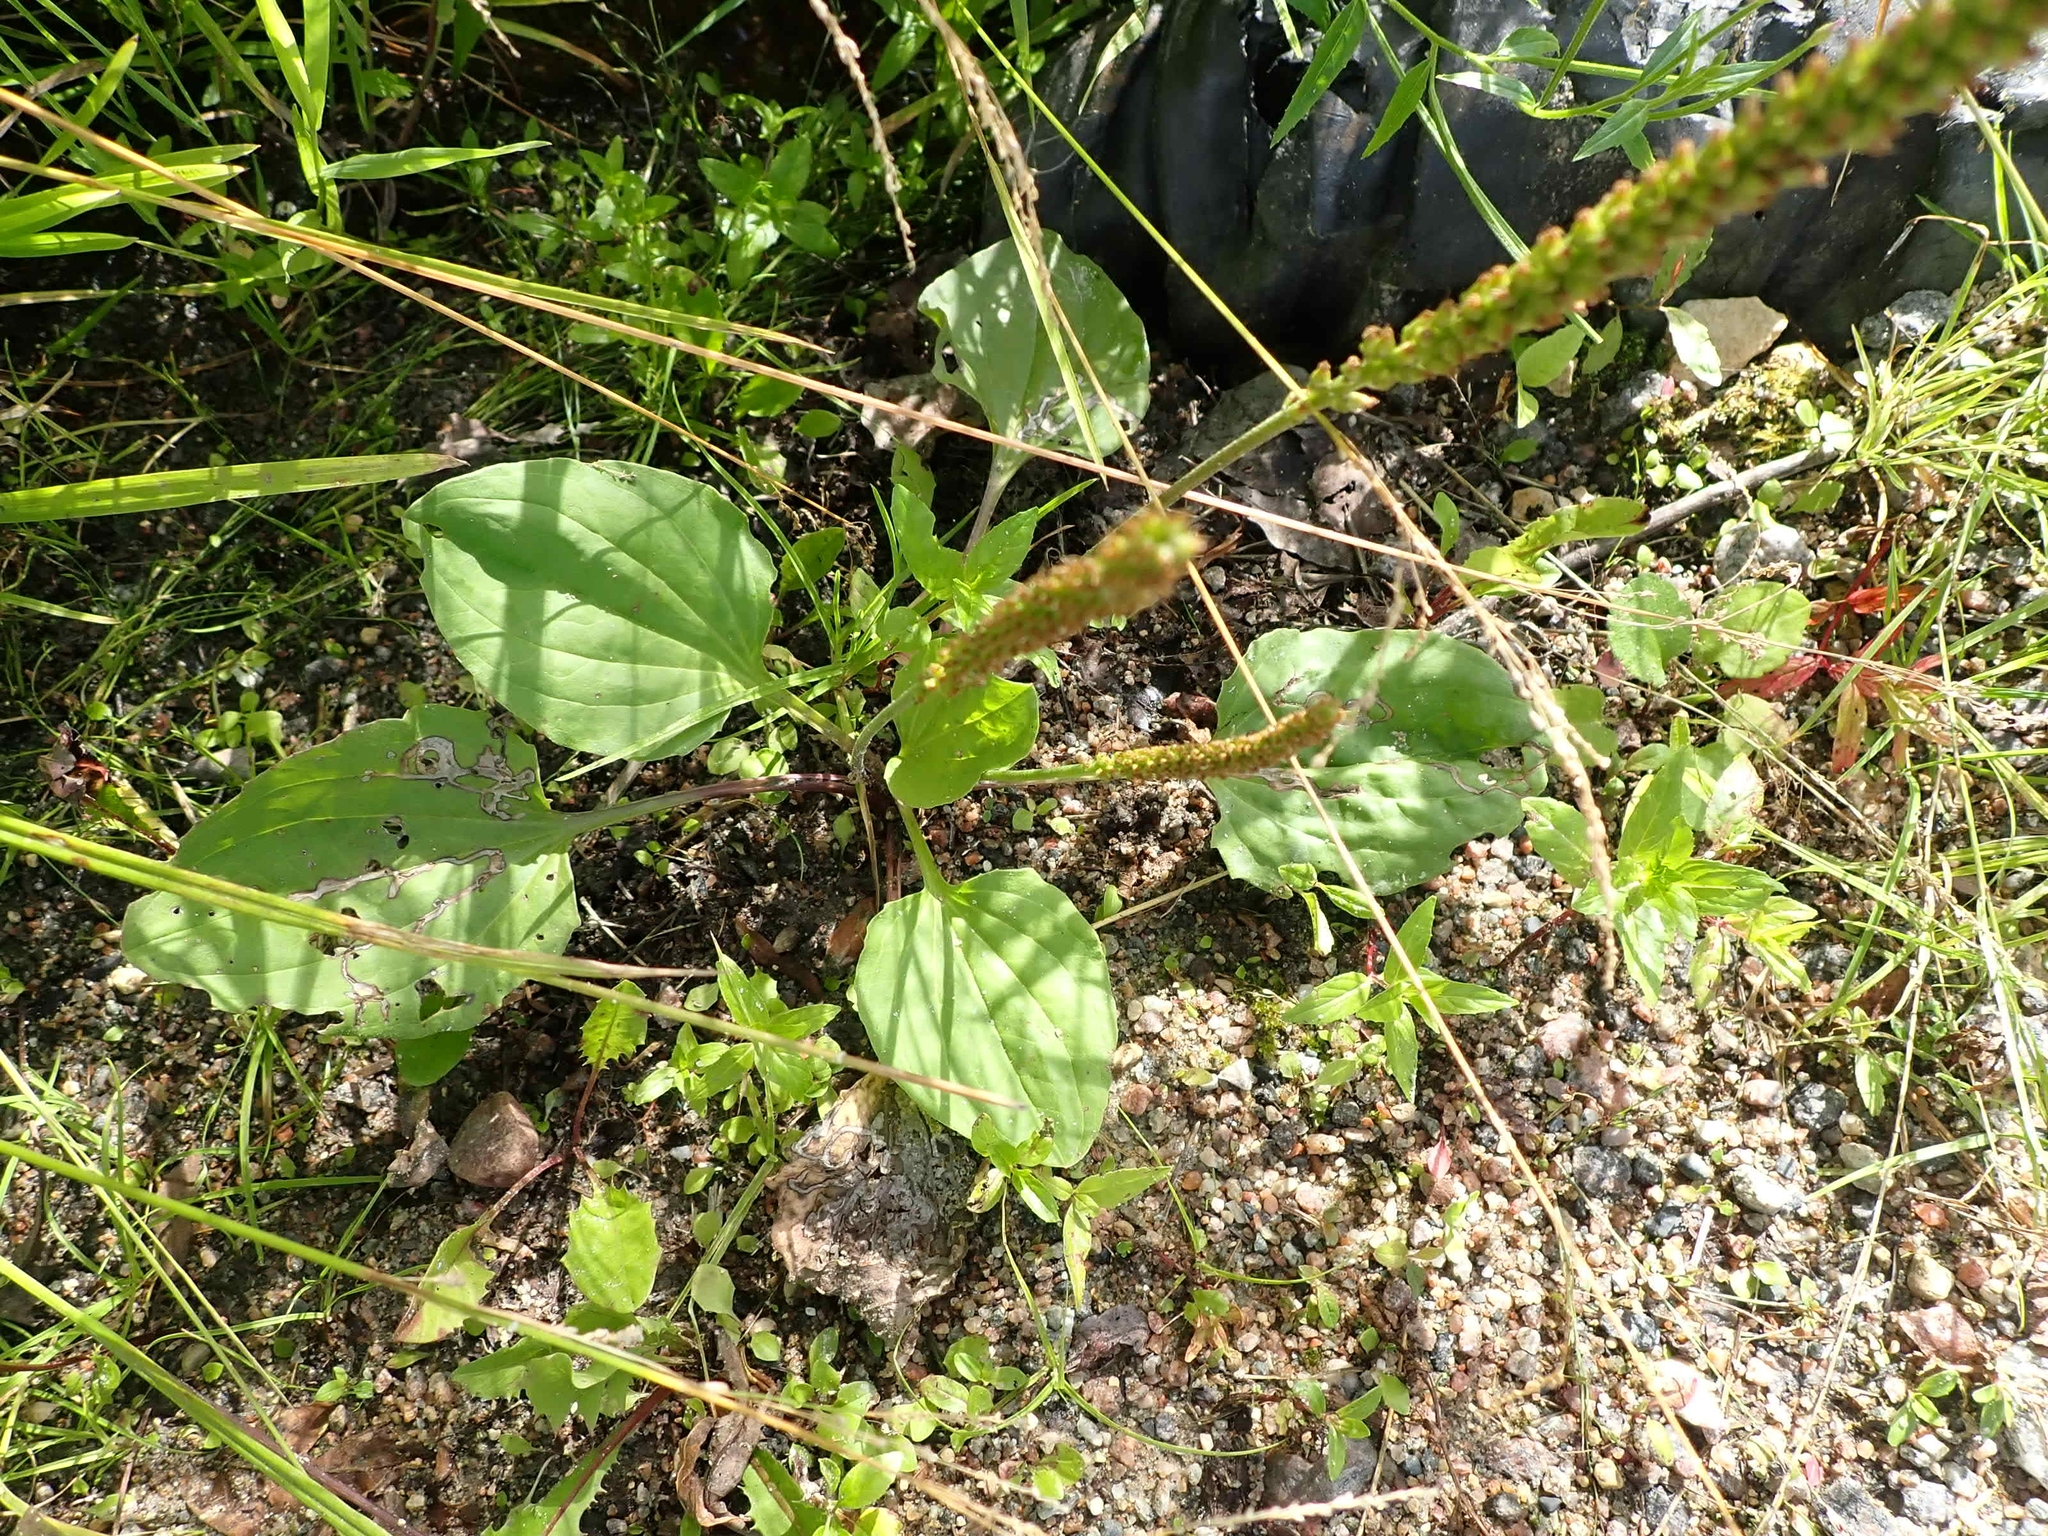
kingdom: Plantae
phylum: Tracheophyta
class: Magnoliopsida
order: Lamiales
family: Plantaginaceae
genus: Plantago
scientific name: Plantago rugelii
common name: American plantain
